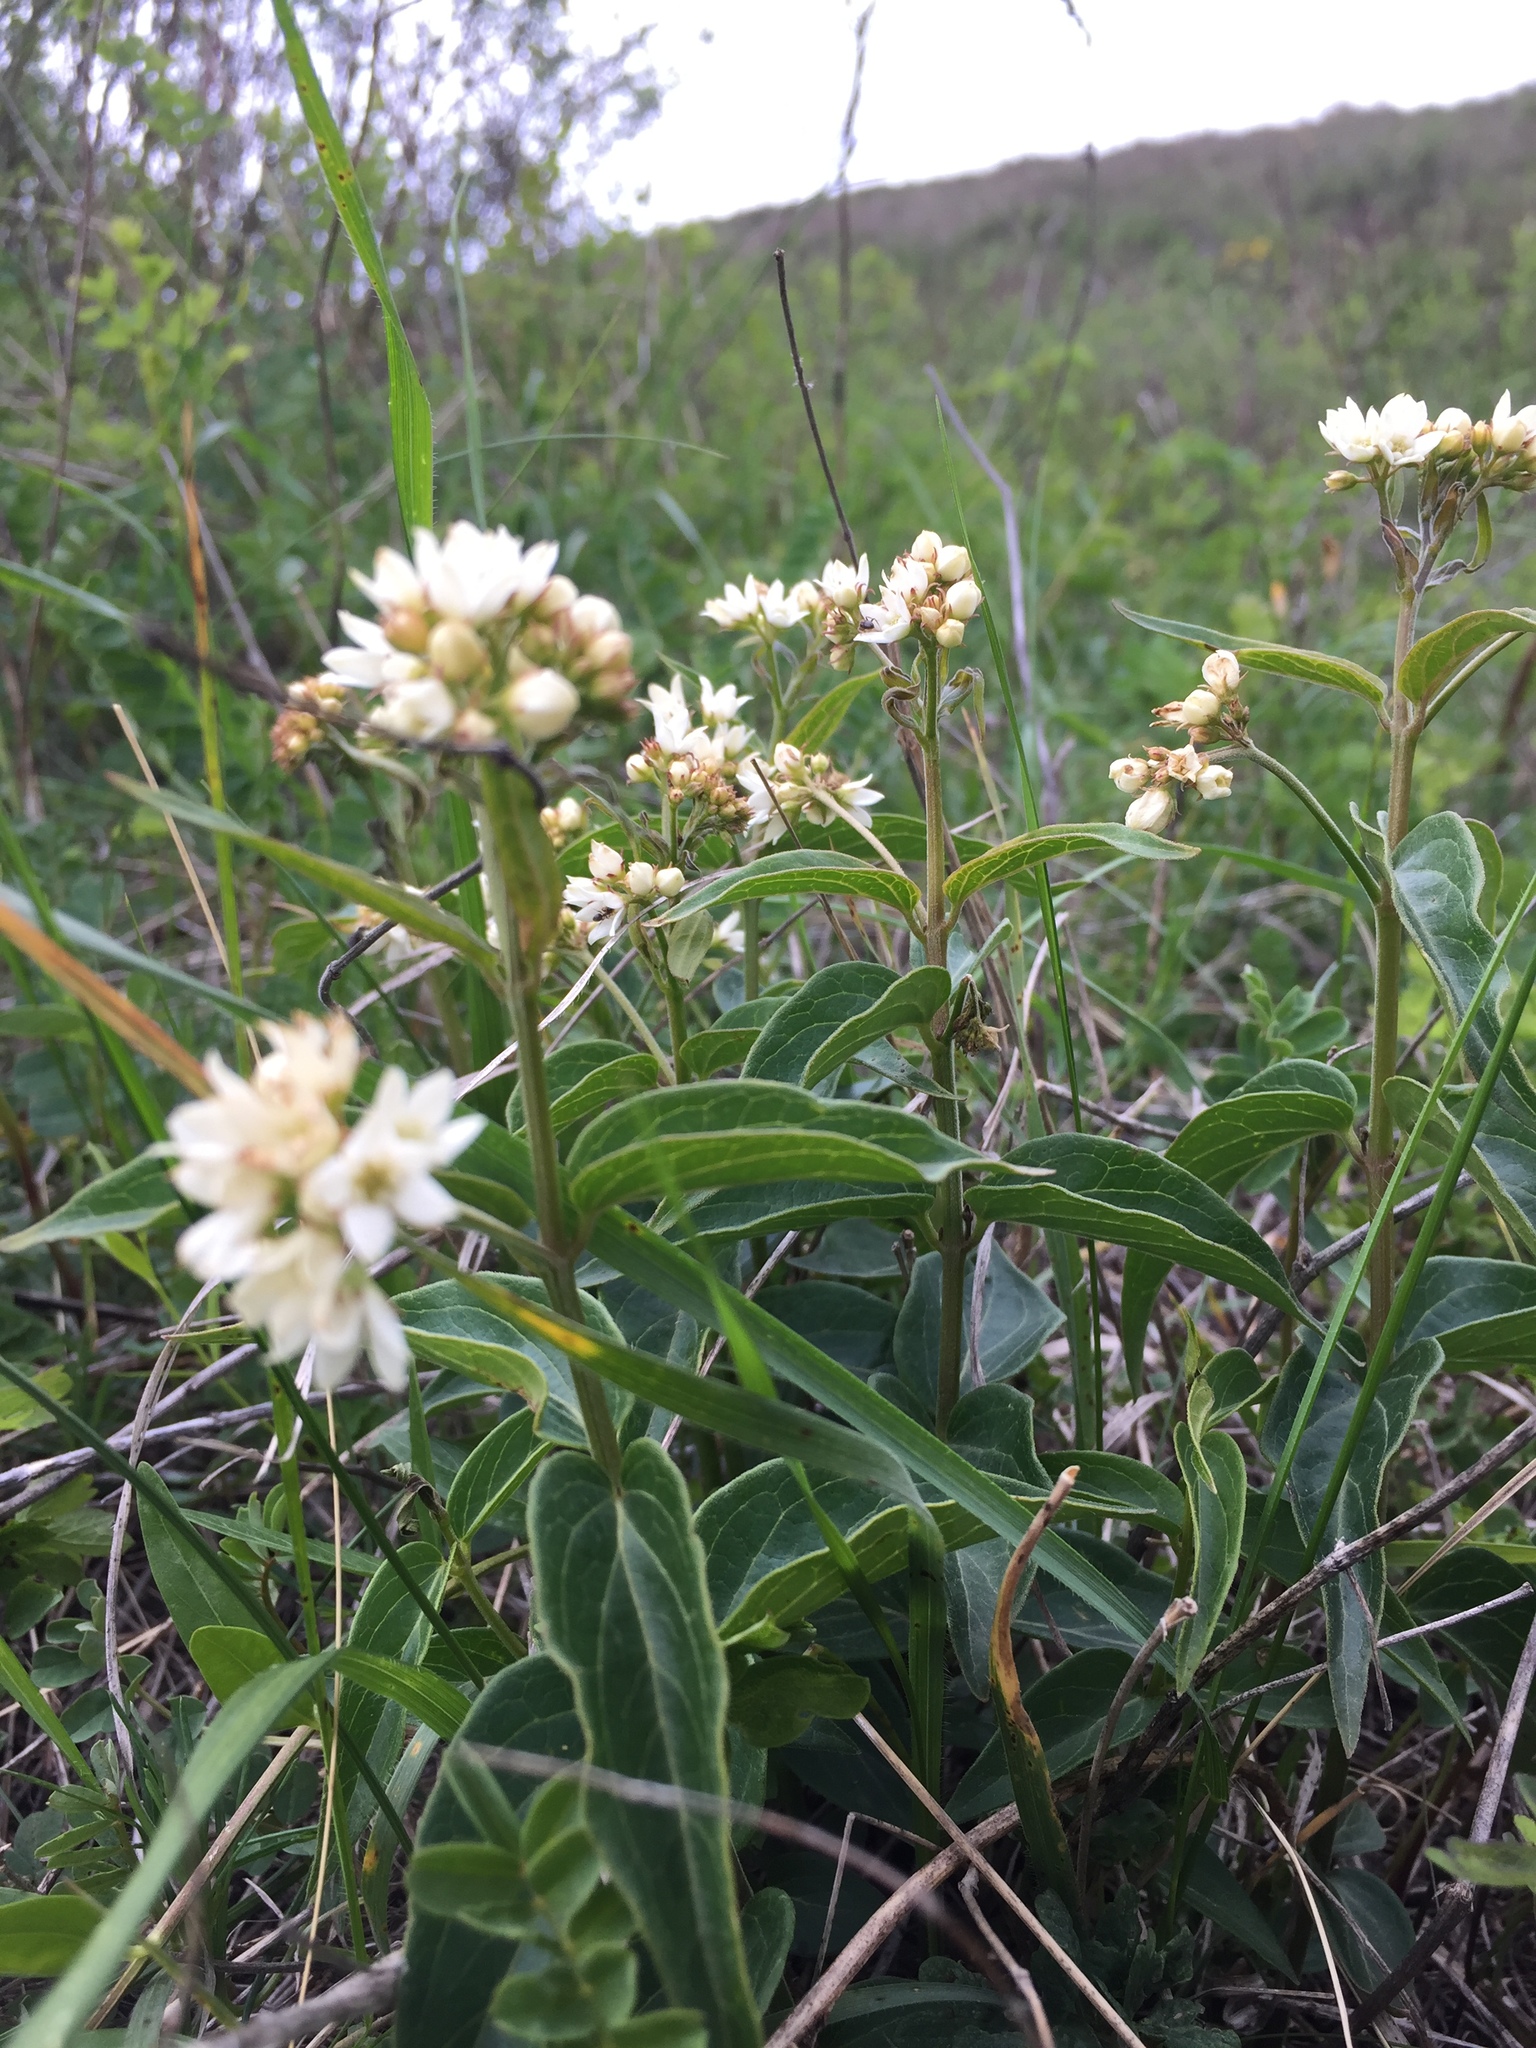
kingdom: Plantae
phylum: Tracheophyta
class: Magnoliopsida
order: Gentianales
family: Apocynaceae
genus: Vincetoxicum
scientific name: Vincetoxicum hirundinaria
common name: White swallowwort
